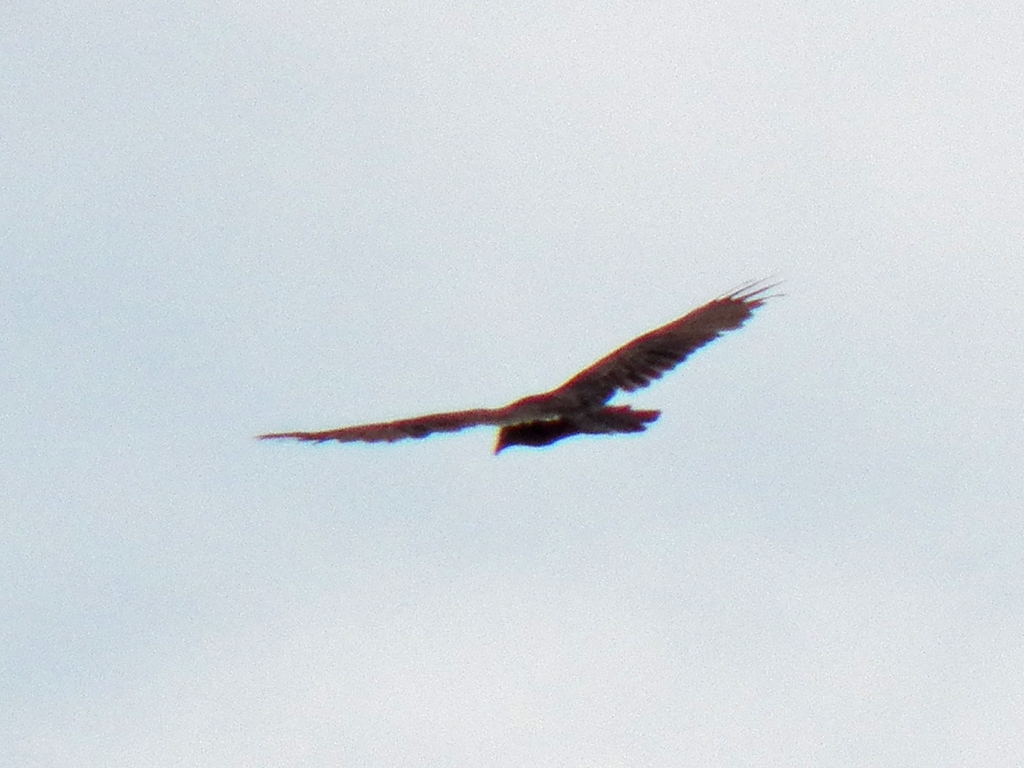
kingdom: Animalia
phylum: Chordata
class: Aves
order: Accipitriformes
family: Cathartidae
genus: Cathartes
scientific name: Cathartes aura
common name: Turkey vulture
